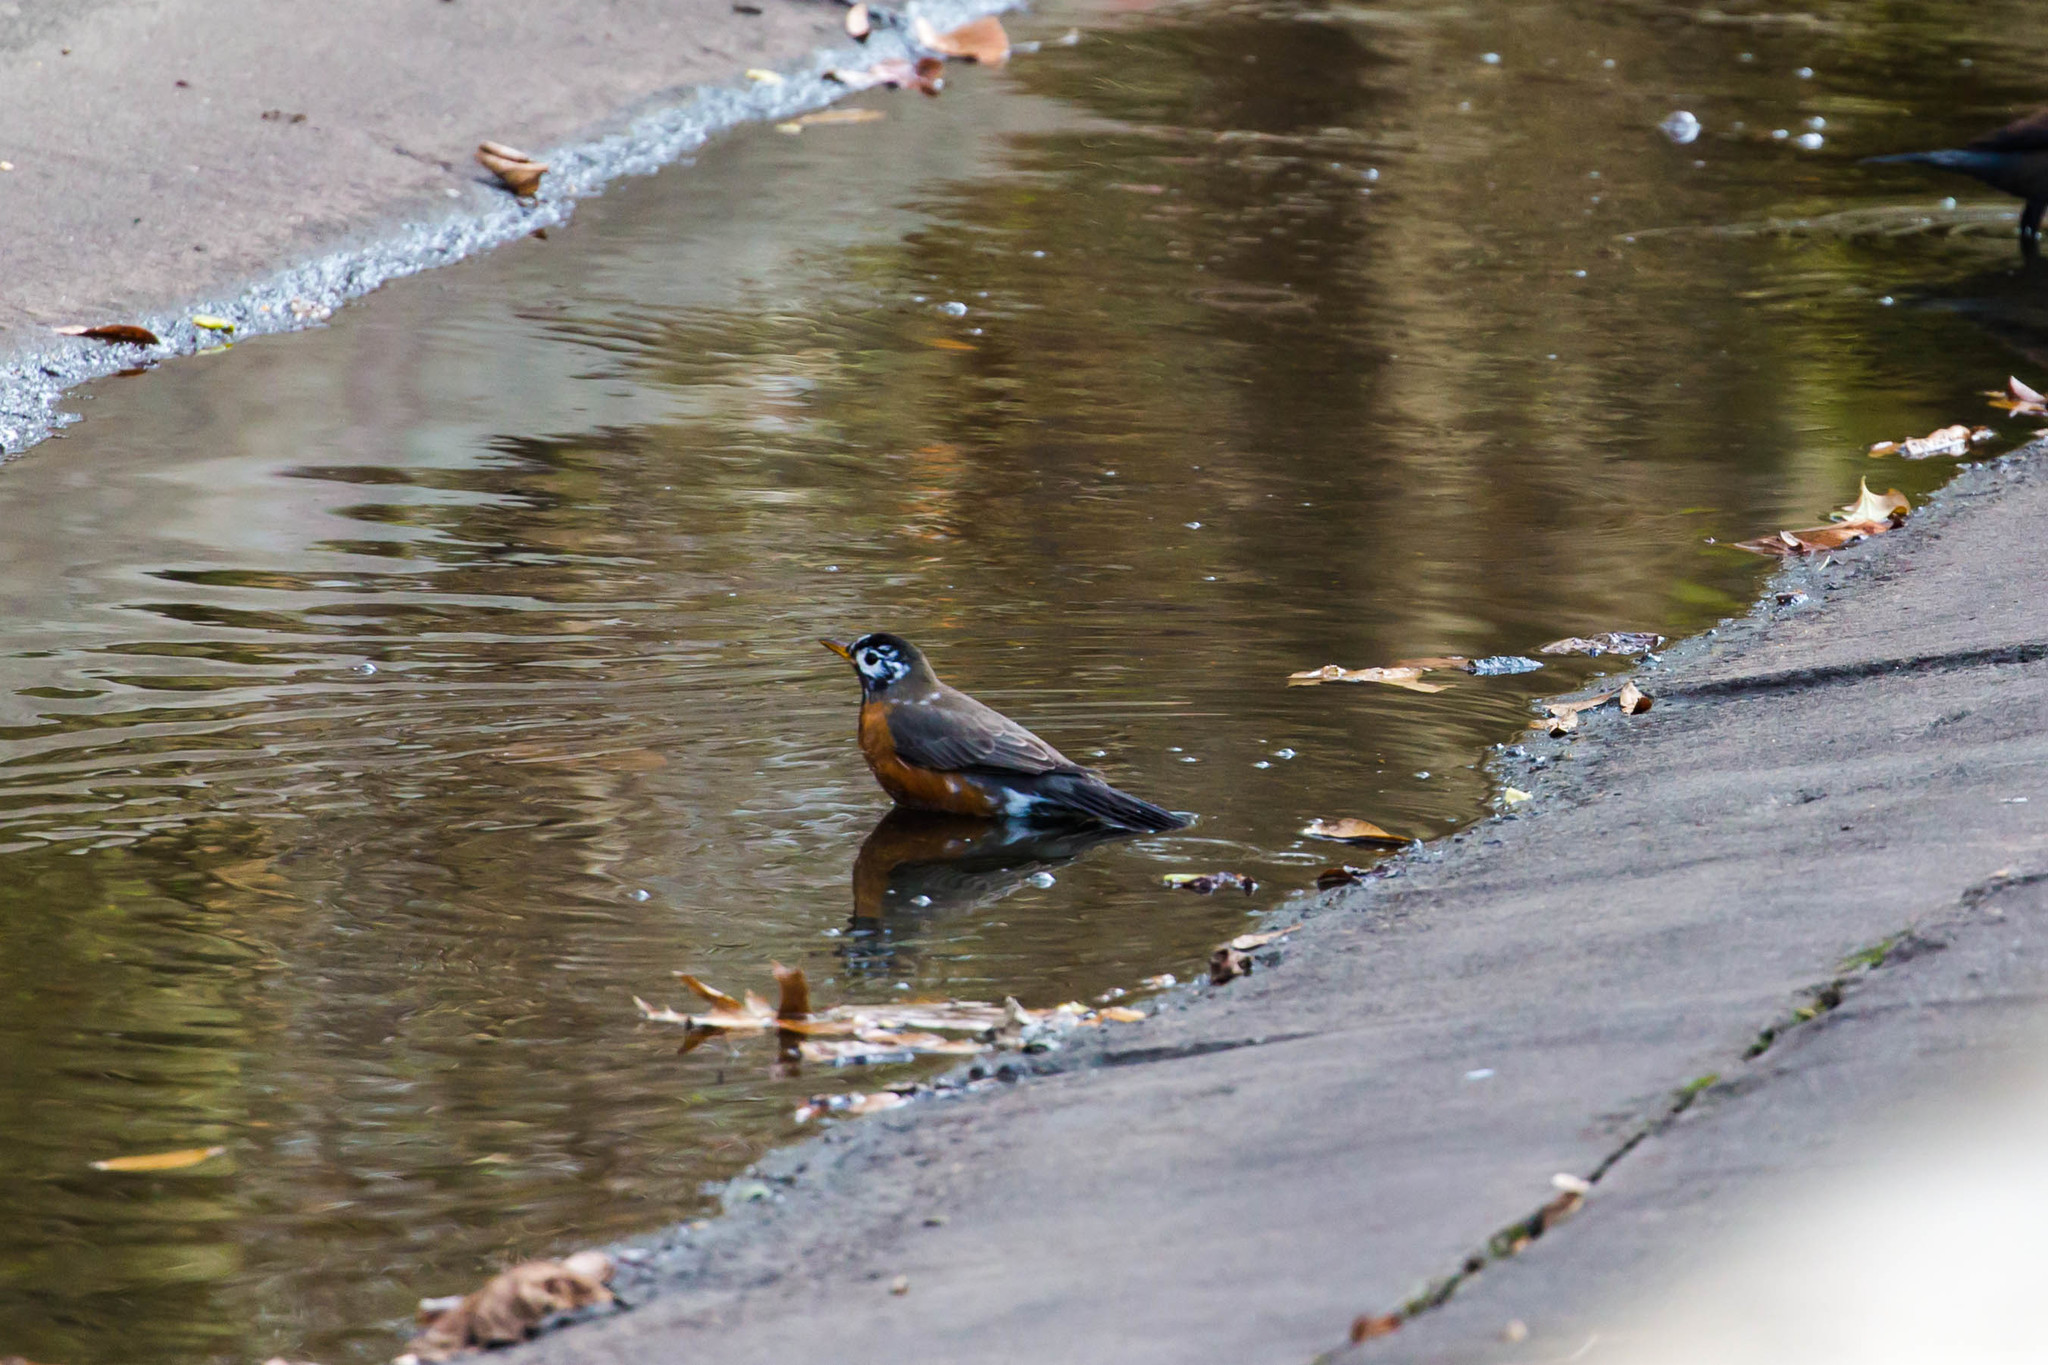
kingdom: Animalia
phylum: Chordata
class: Aves
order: Passeriformes
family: Turdidae
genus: Turdus
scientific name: Turdus migratorius
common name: American robin
